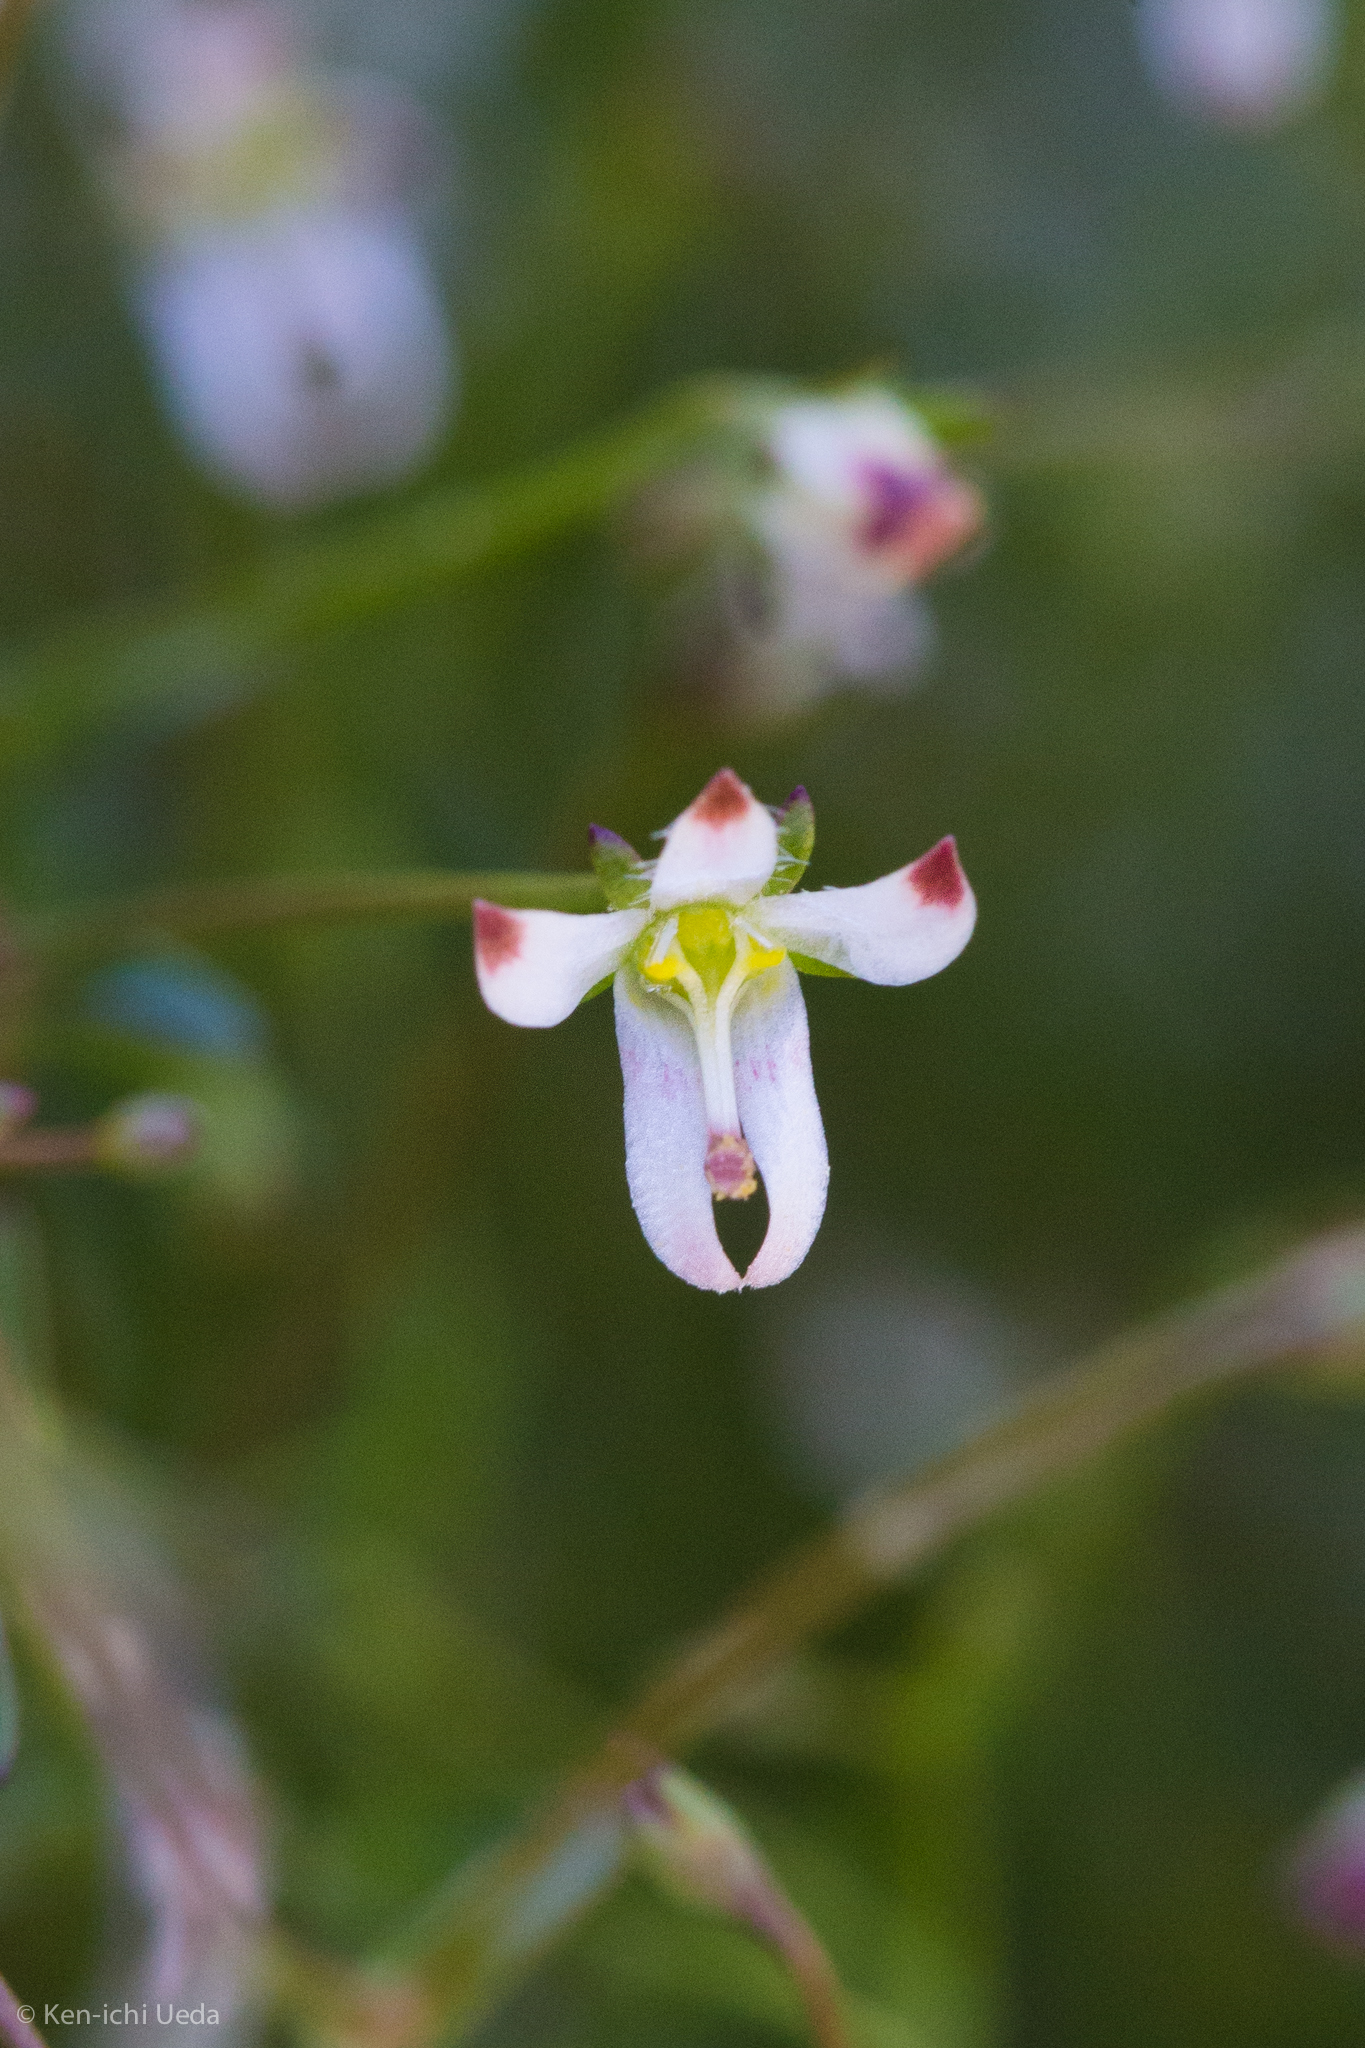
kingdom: Plantae
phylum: Tracheophyta
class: Magnoliopsida
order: Asterales
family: Campanulaceae
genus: Nemacladus
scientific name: Nemacladus orientalis
